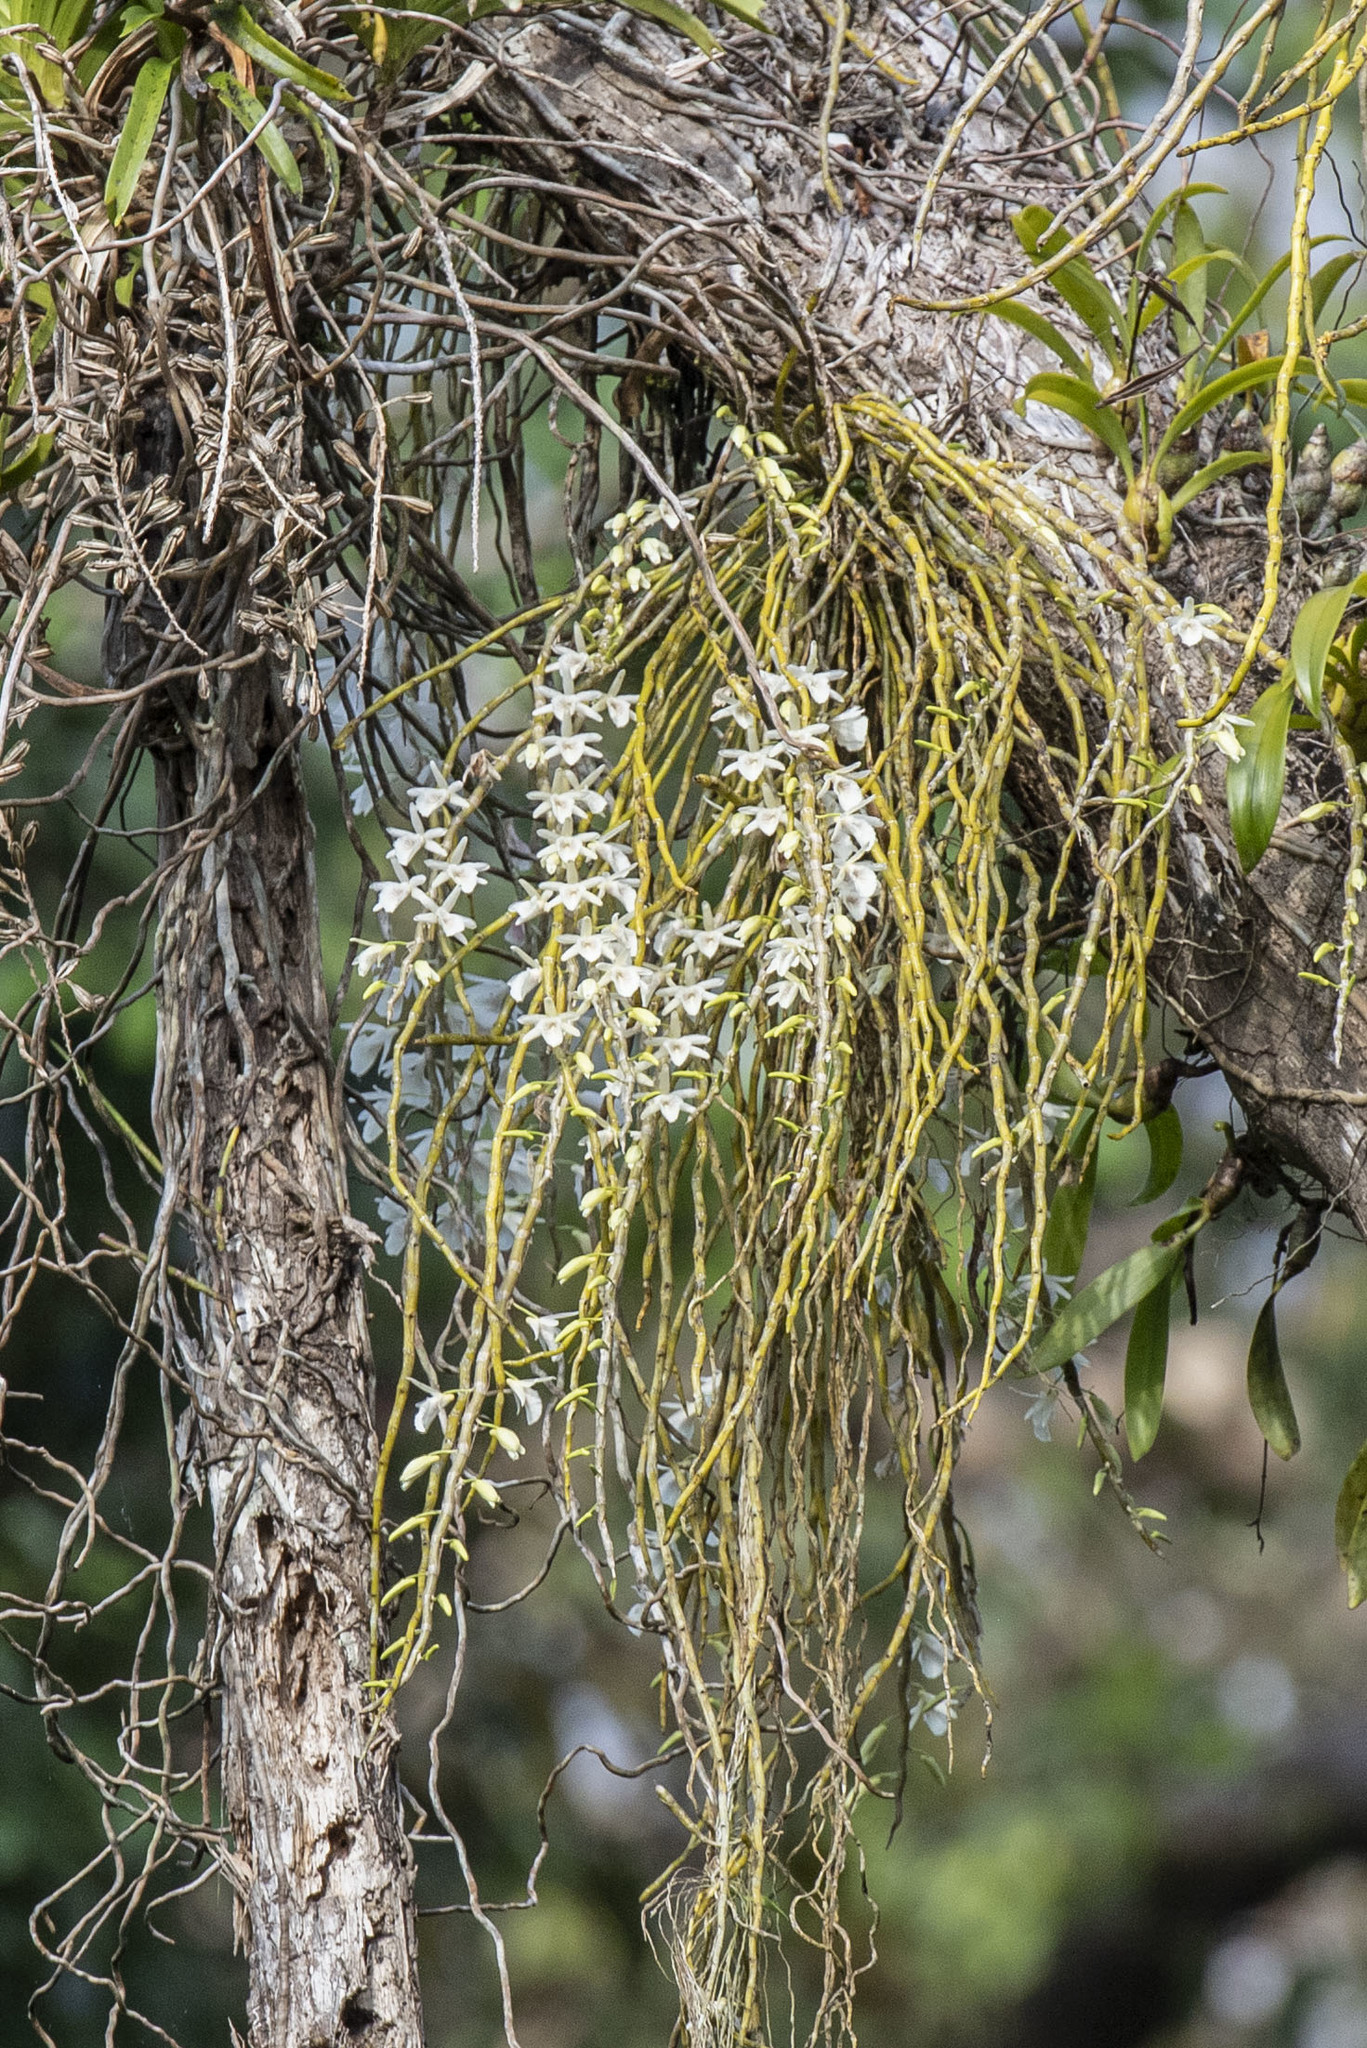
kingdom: Plantae
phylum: Tracheophyta
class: Liliopsida
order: Asparagales
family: Orchidaceae
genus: Dendrobium
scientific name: Dendrobium polyanthum
